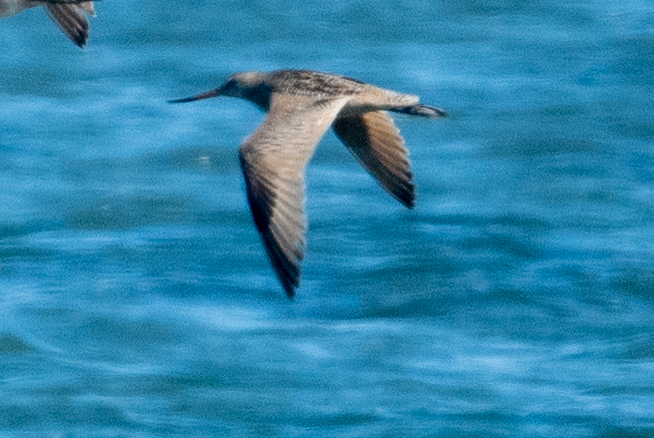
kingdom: Animalia
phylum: Chordata
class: Aves
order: Charadriiformes
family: Scolopacidae
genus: Limosa
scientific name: Limosa fedoa
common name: Marbled godwit
